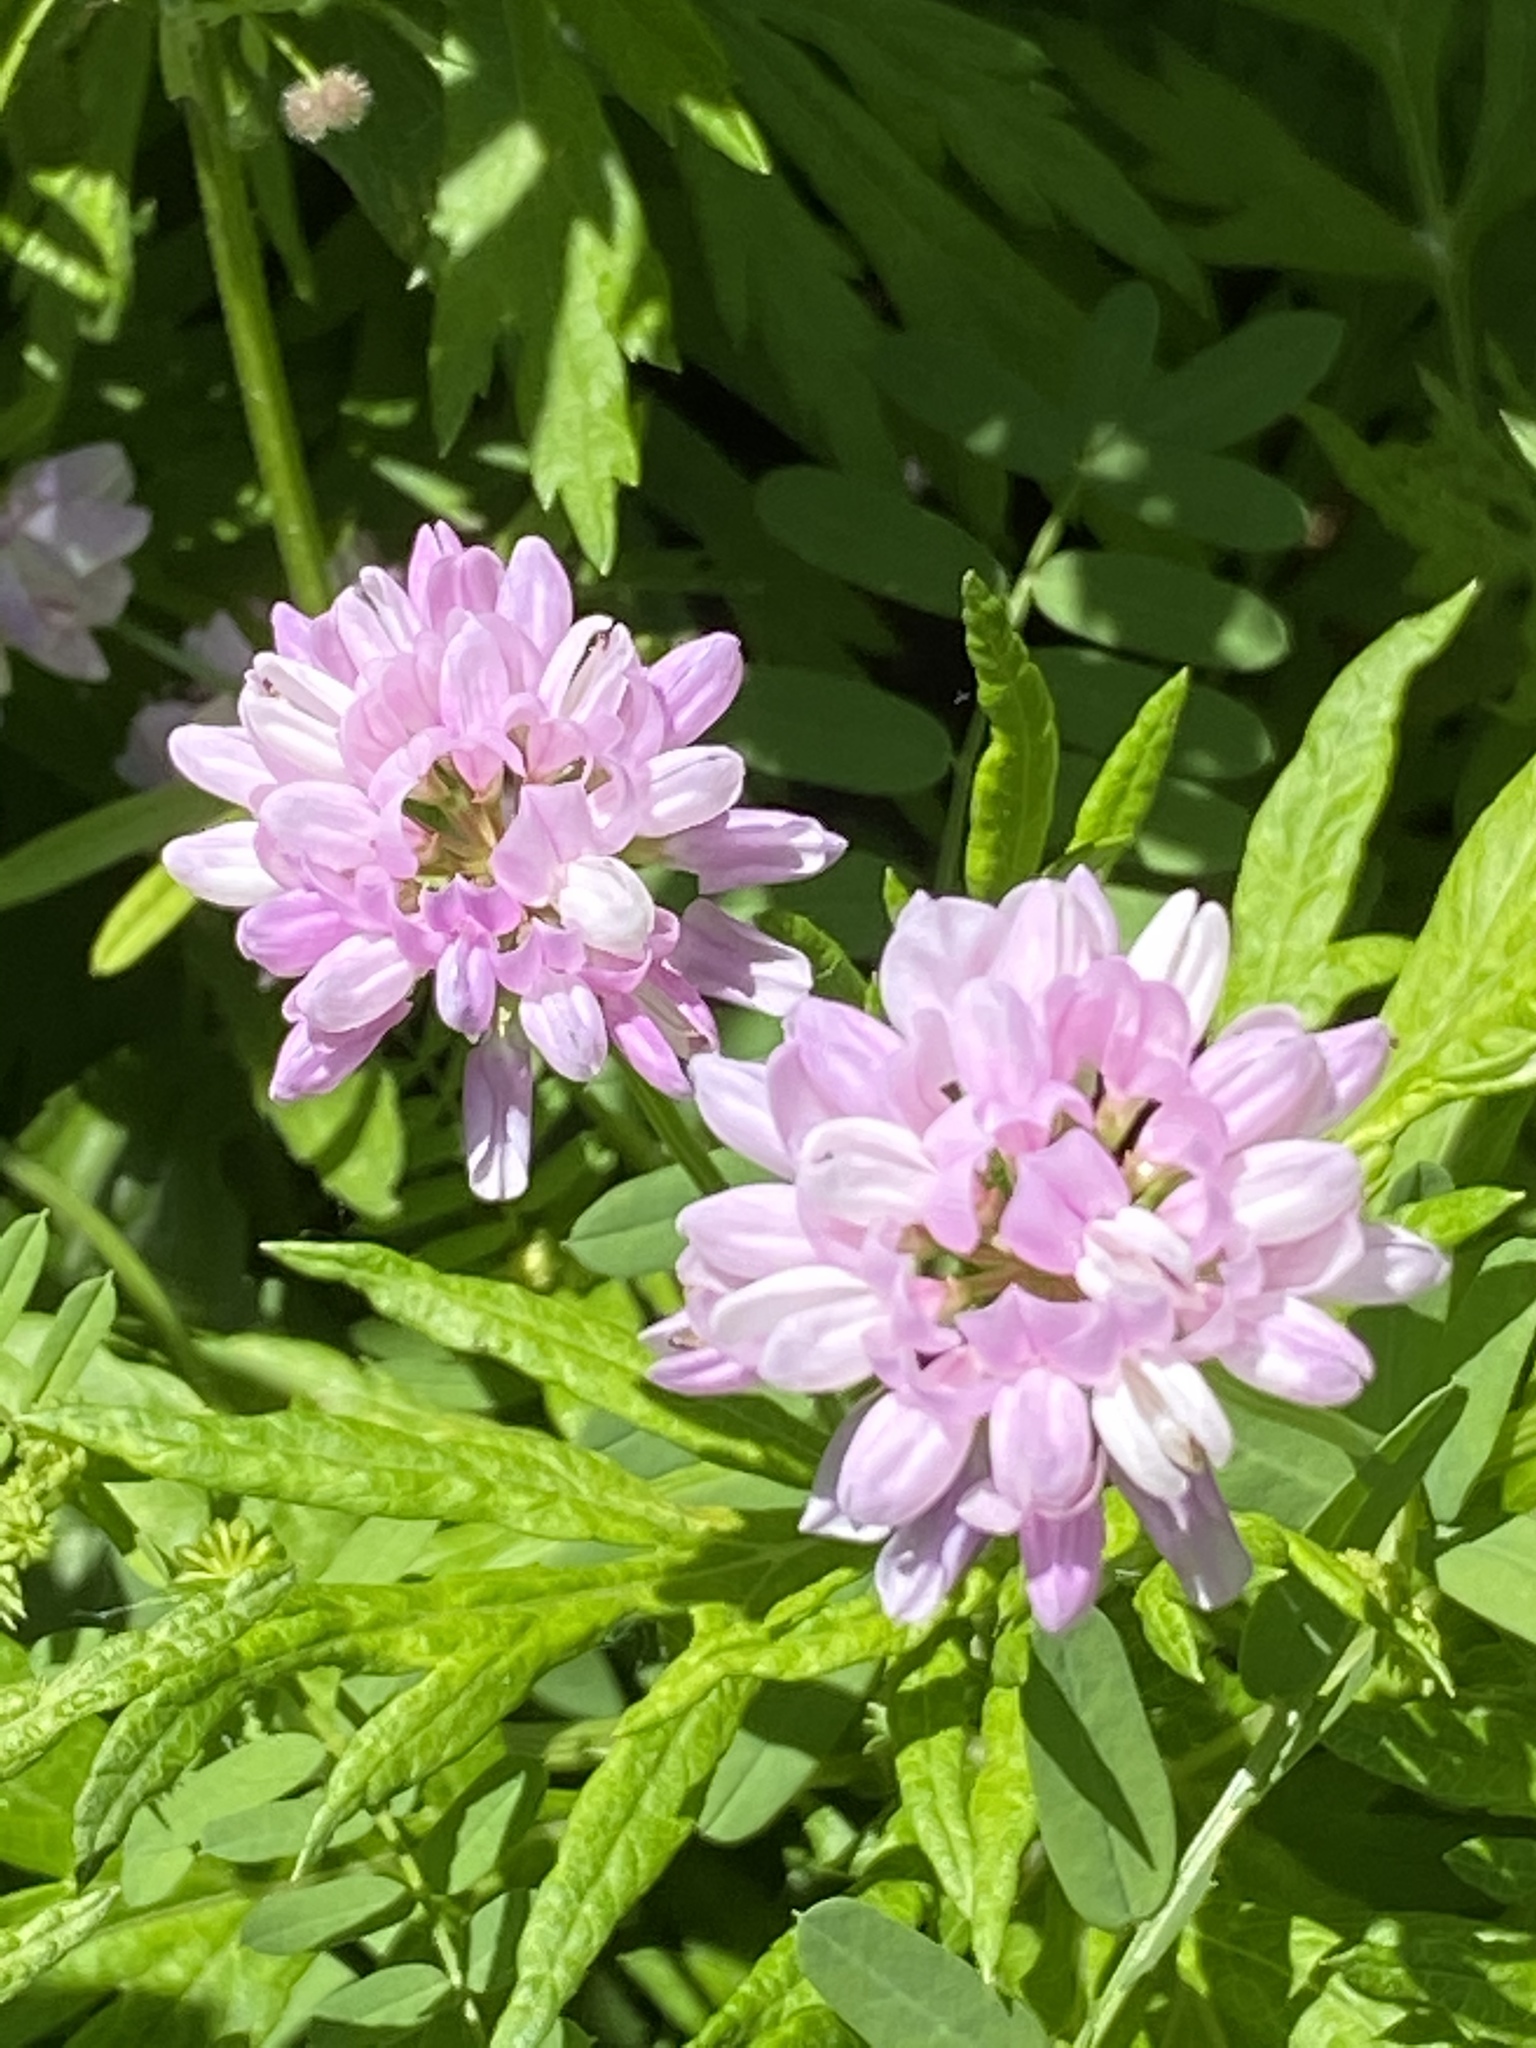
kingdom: Plantae
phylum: Tracheophyta
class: Magnoliopsida
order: Fabales
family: Fabaceae
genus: Coronilla
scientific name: Coronilla varia
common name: Crownvetch
